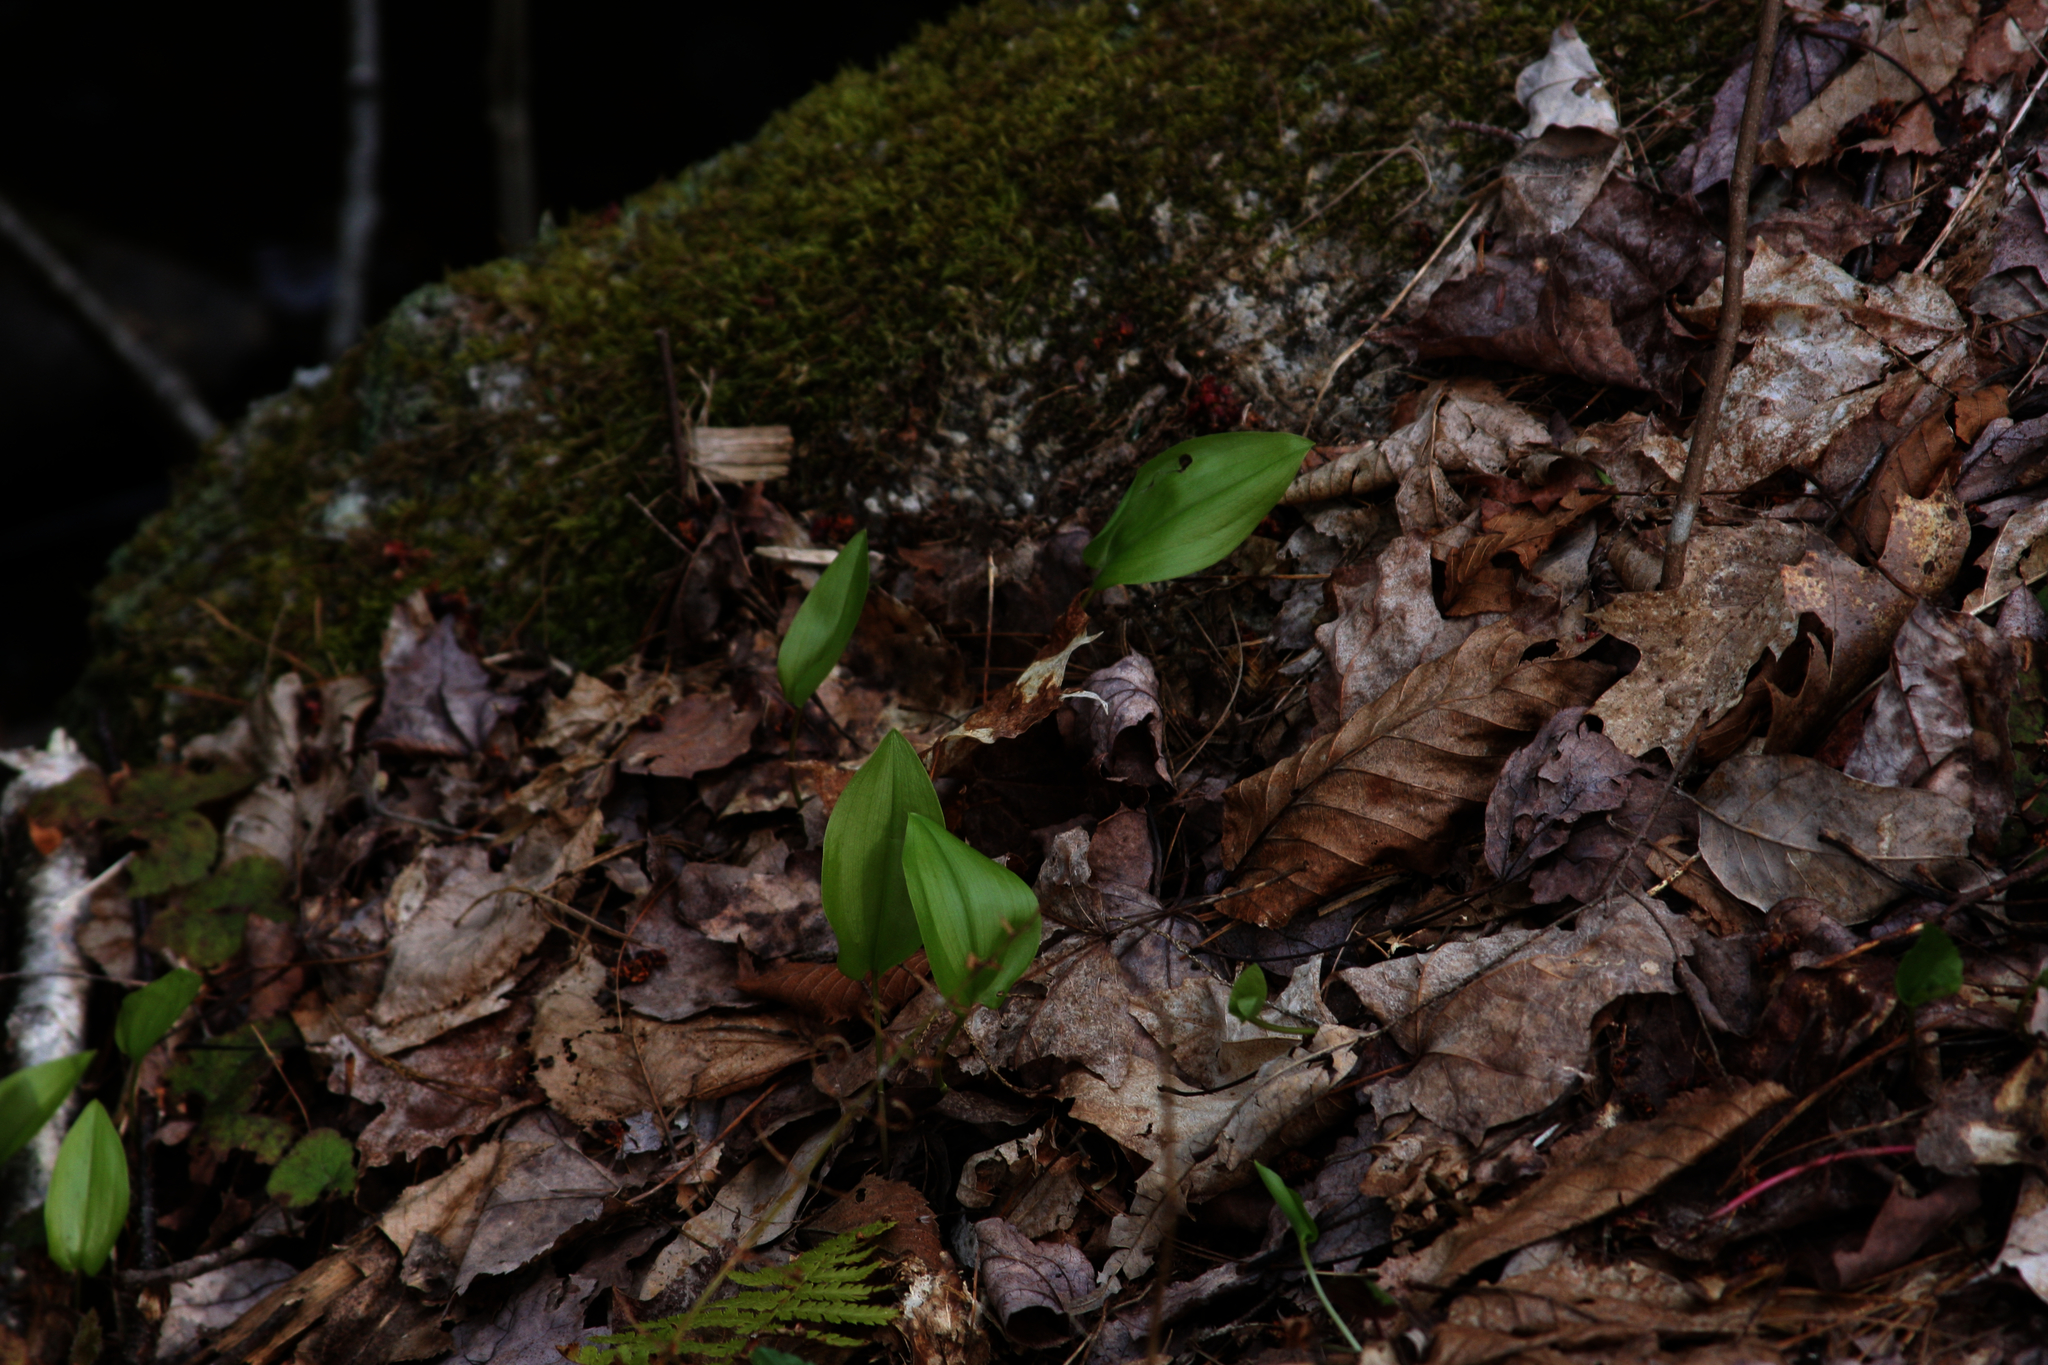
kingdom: Plantae
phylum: Tracheophyta
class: Liliopsida
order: Asparagales
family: Asparagaceae
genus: Maianthemum
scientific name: Maianthemum canadense
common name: False lily-of-the-valley
